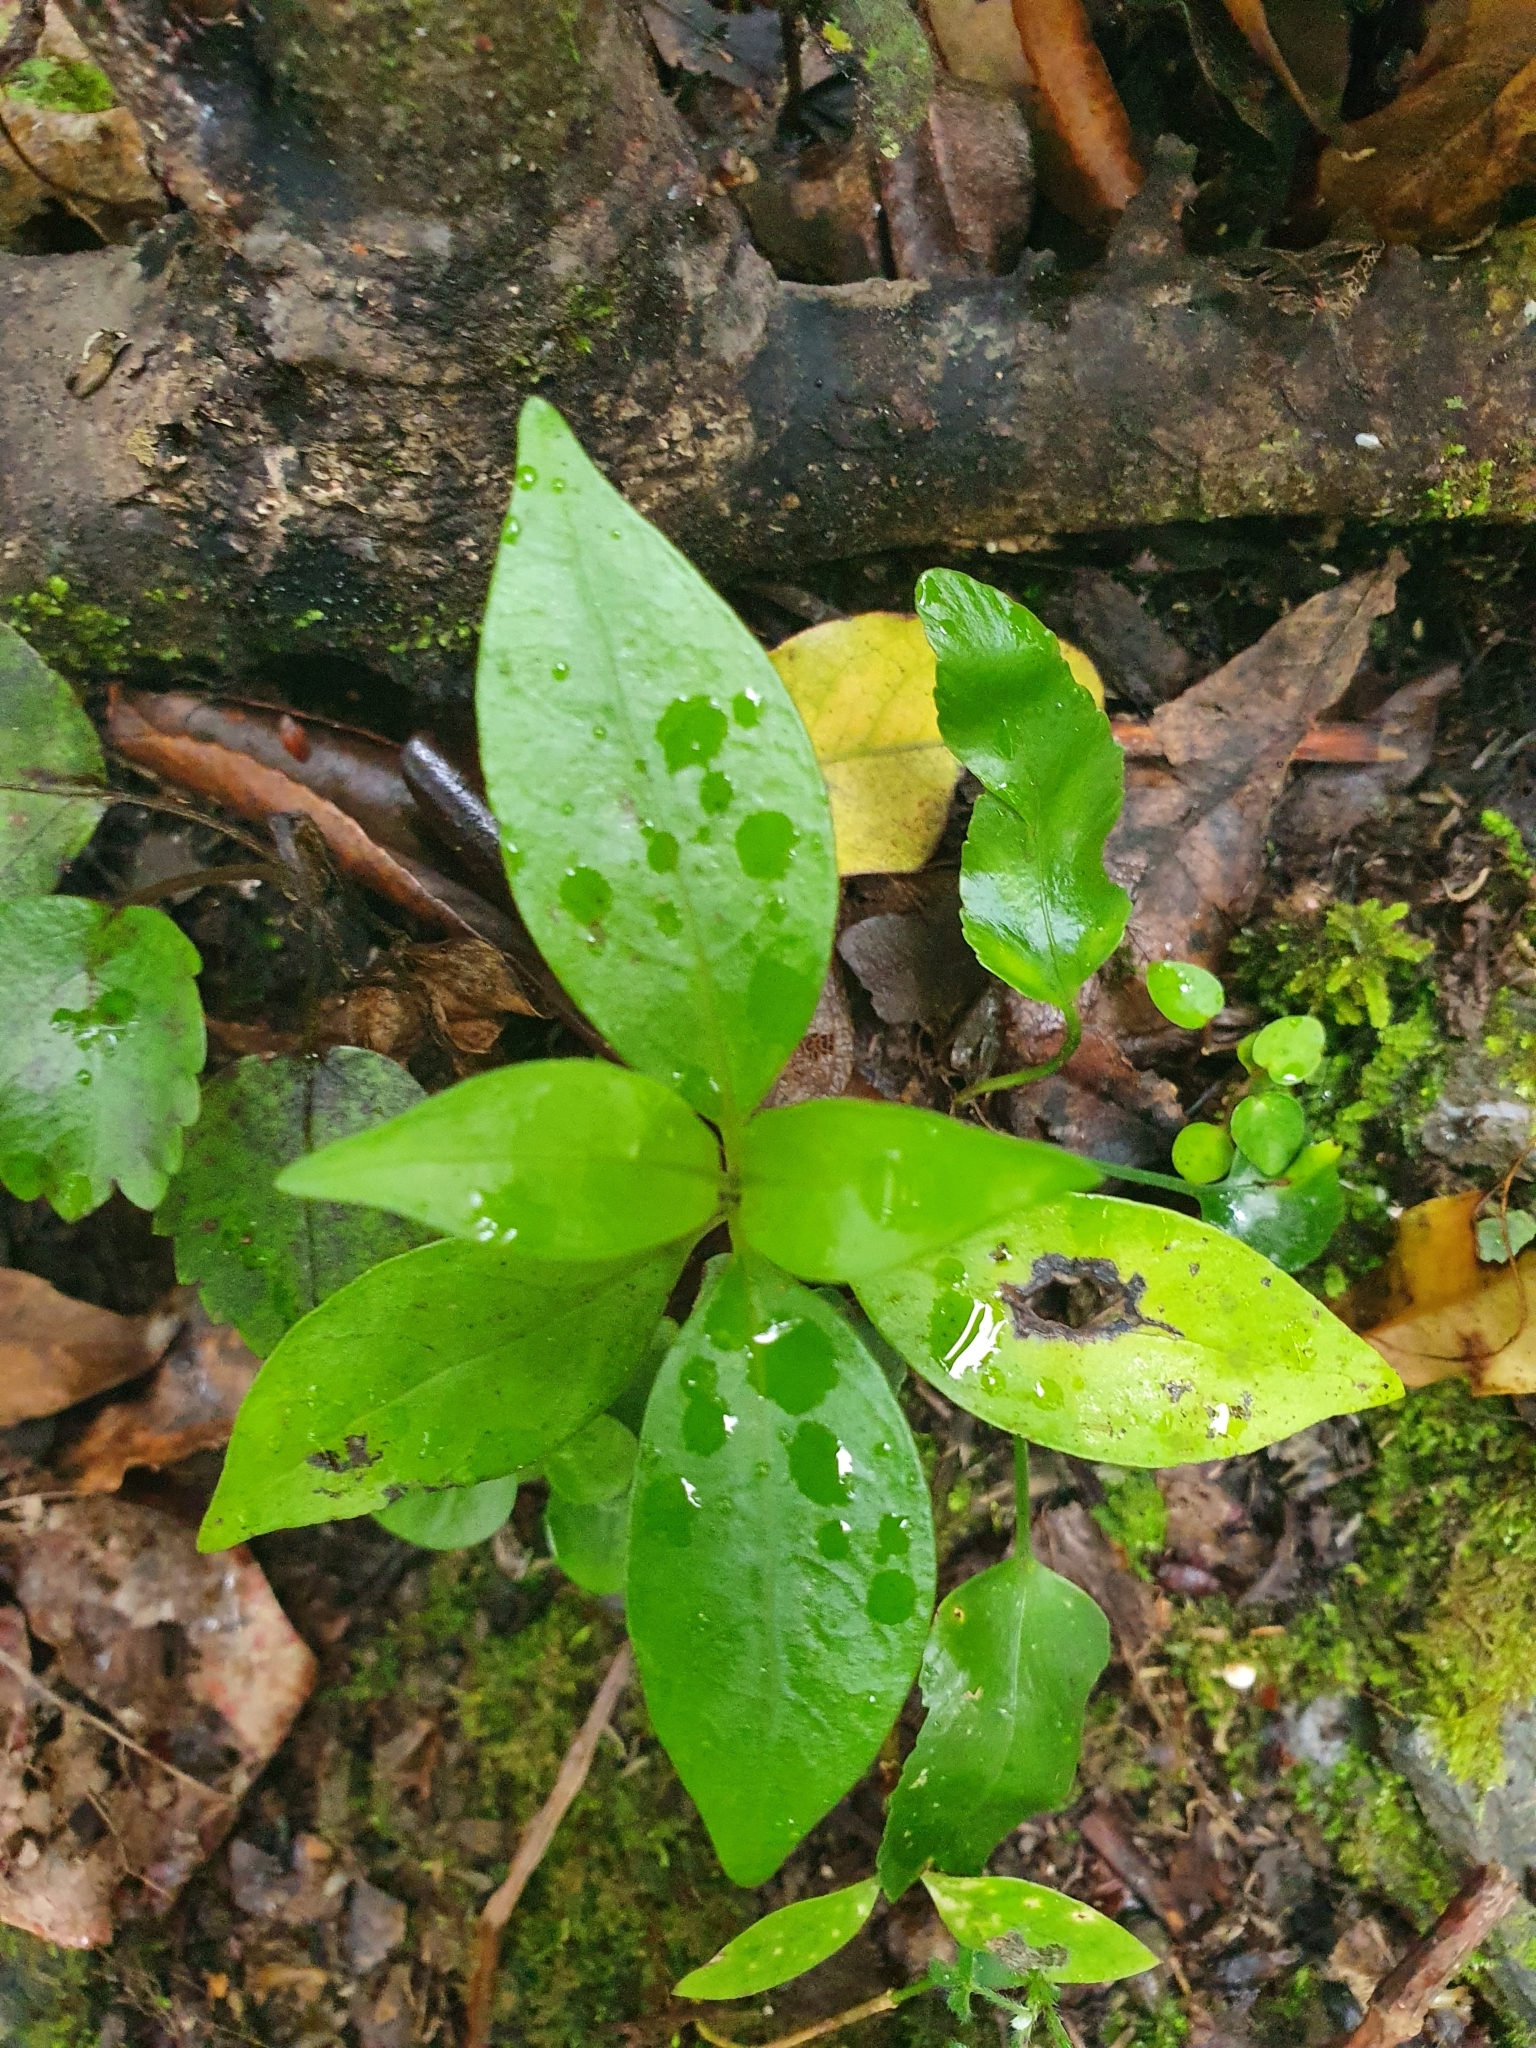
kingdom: Plantae
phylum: Tracheophyta
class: Magnoliopsida
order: Gentianales
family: Loganiaceae
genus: Geniostoma
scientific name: Geniostoma ligustrifolium
